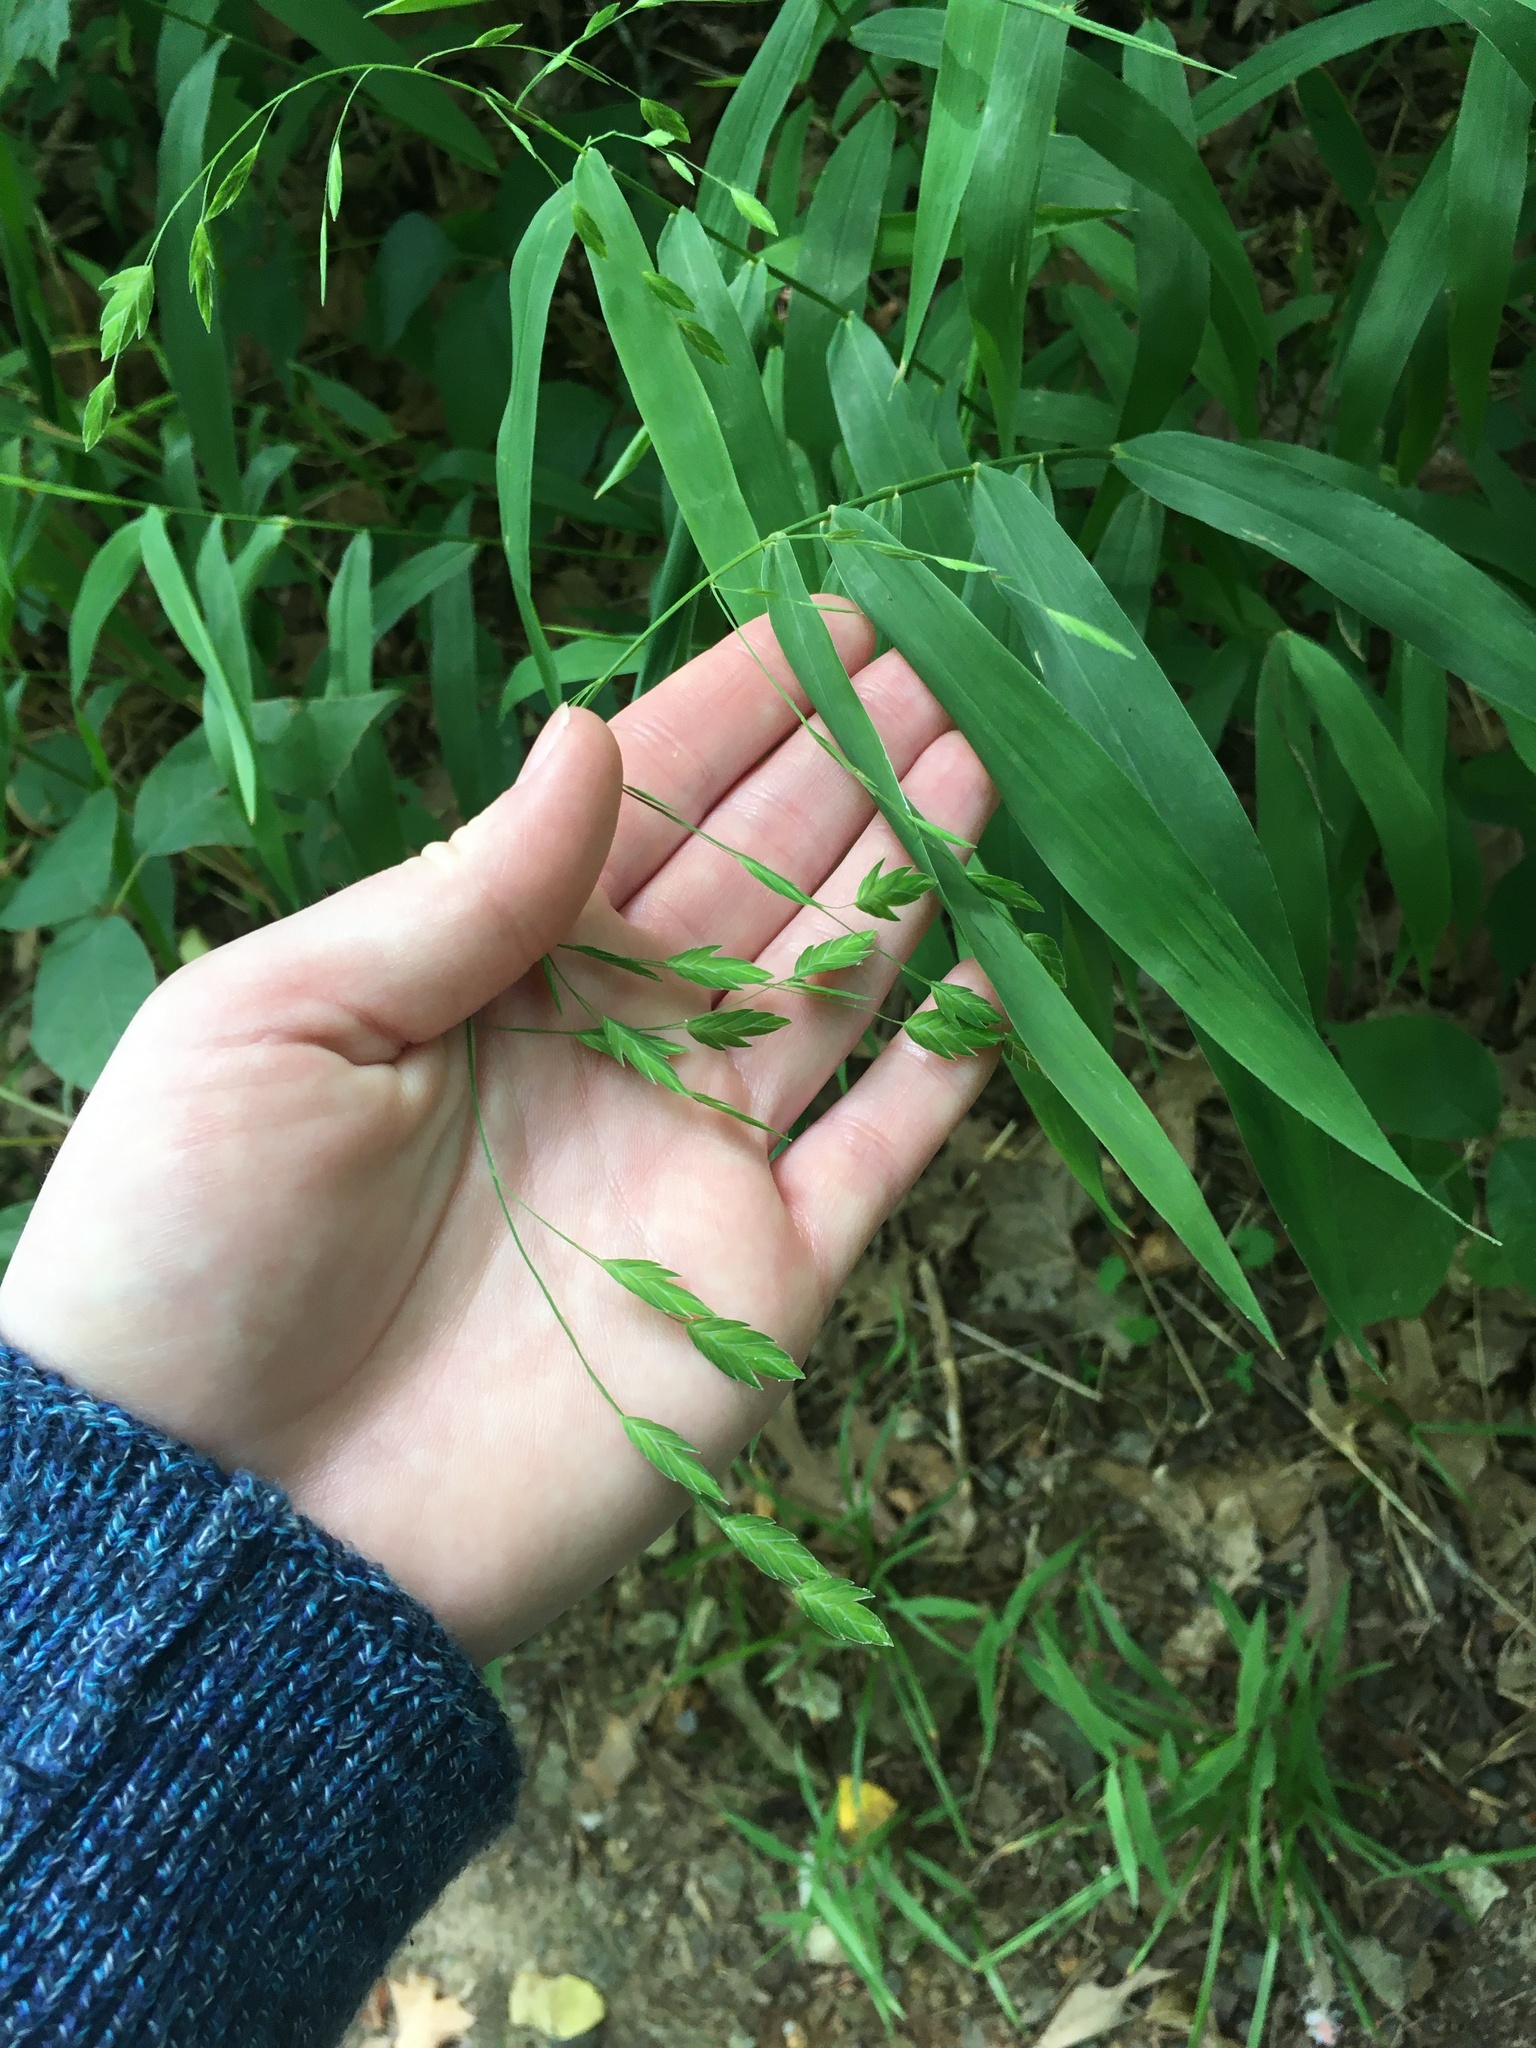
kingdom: Plantae
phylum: Tracheophyta
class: Liliopsida
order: Poales
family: Poaceae
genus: Chasmanthium
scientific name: Chasmanthium latifolium
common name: Broad-leaved chasmanthium
